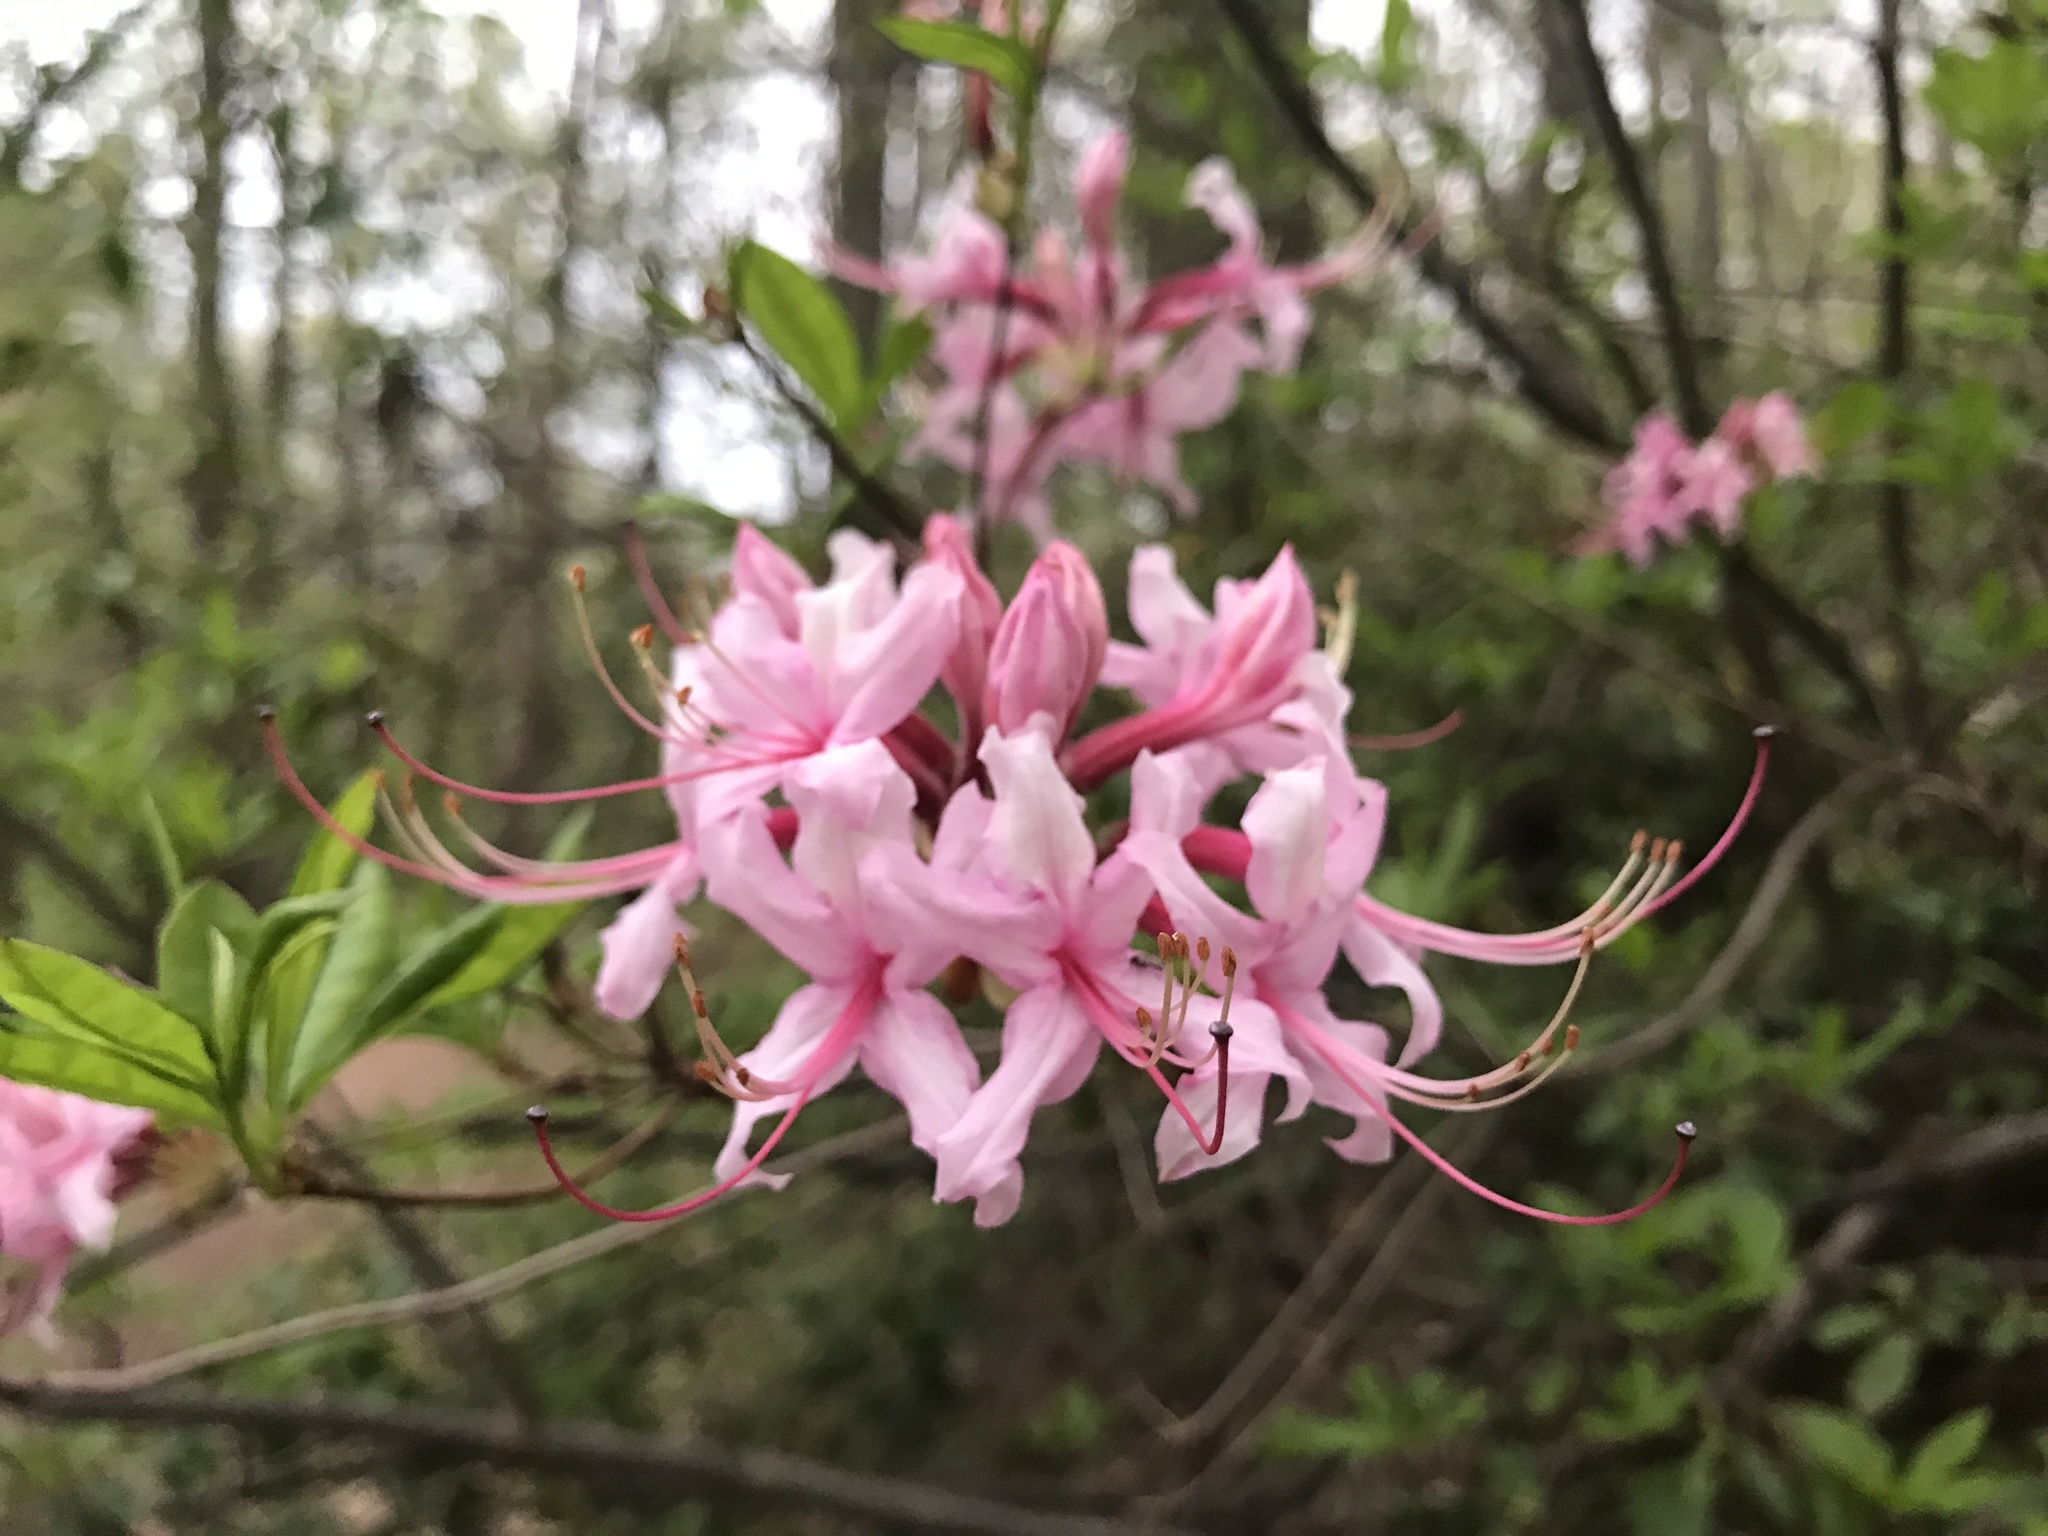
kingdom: Plantae
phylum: Tracheophyta
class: Magnoliopsida
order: Ericales
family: Ericaceae
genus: Rhododendron
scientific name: Rhododendron periclymenoides
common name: Election-pink
